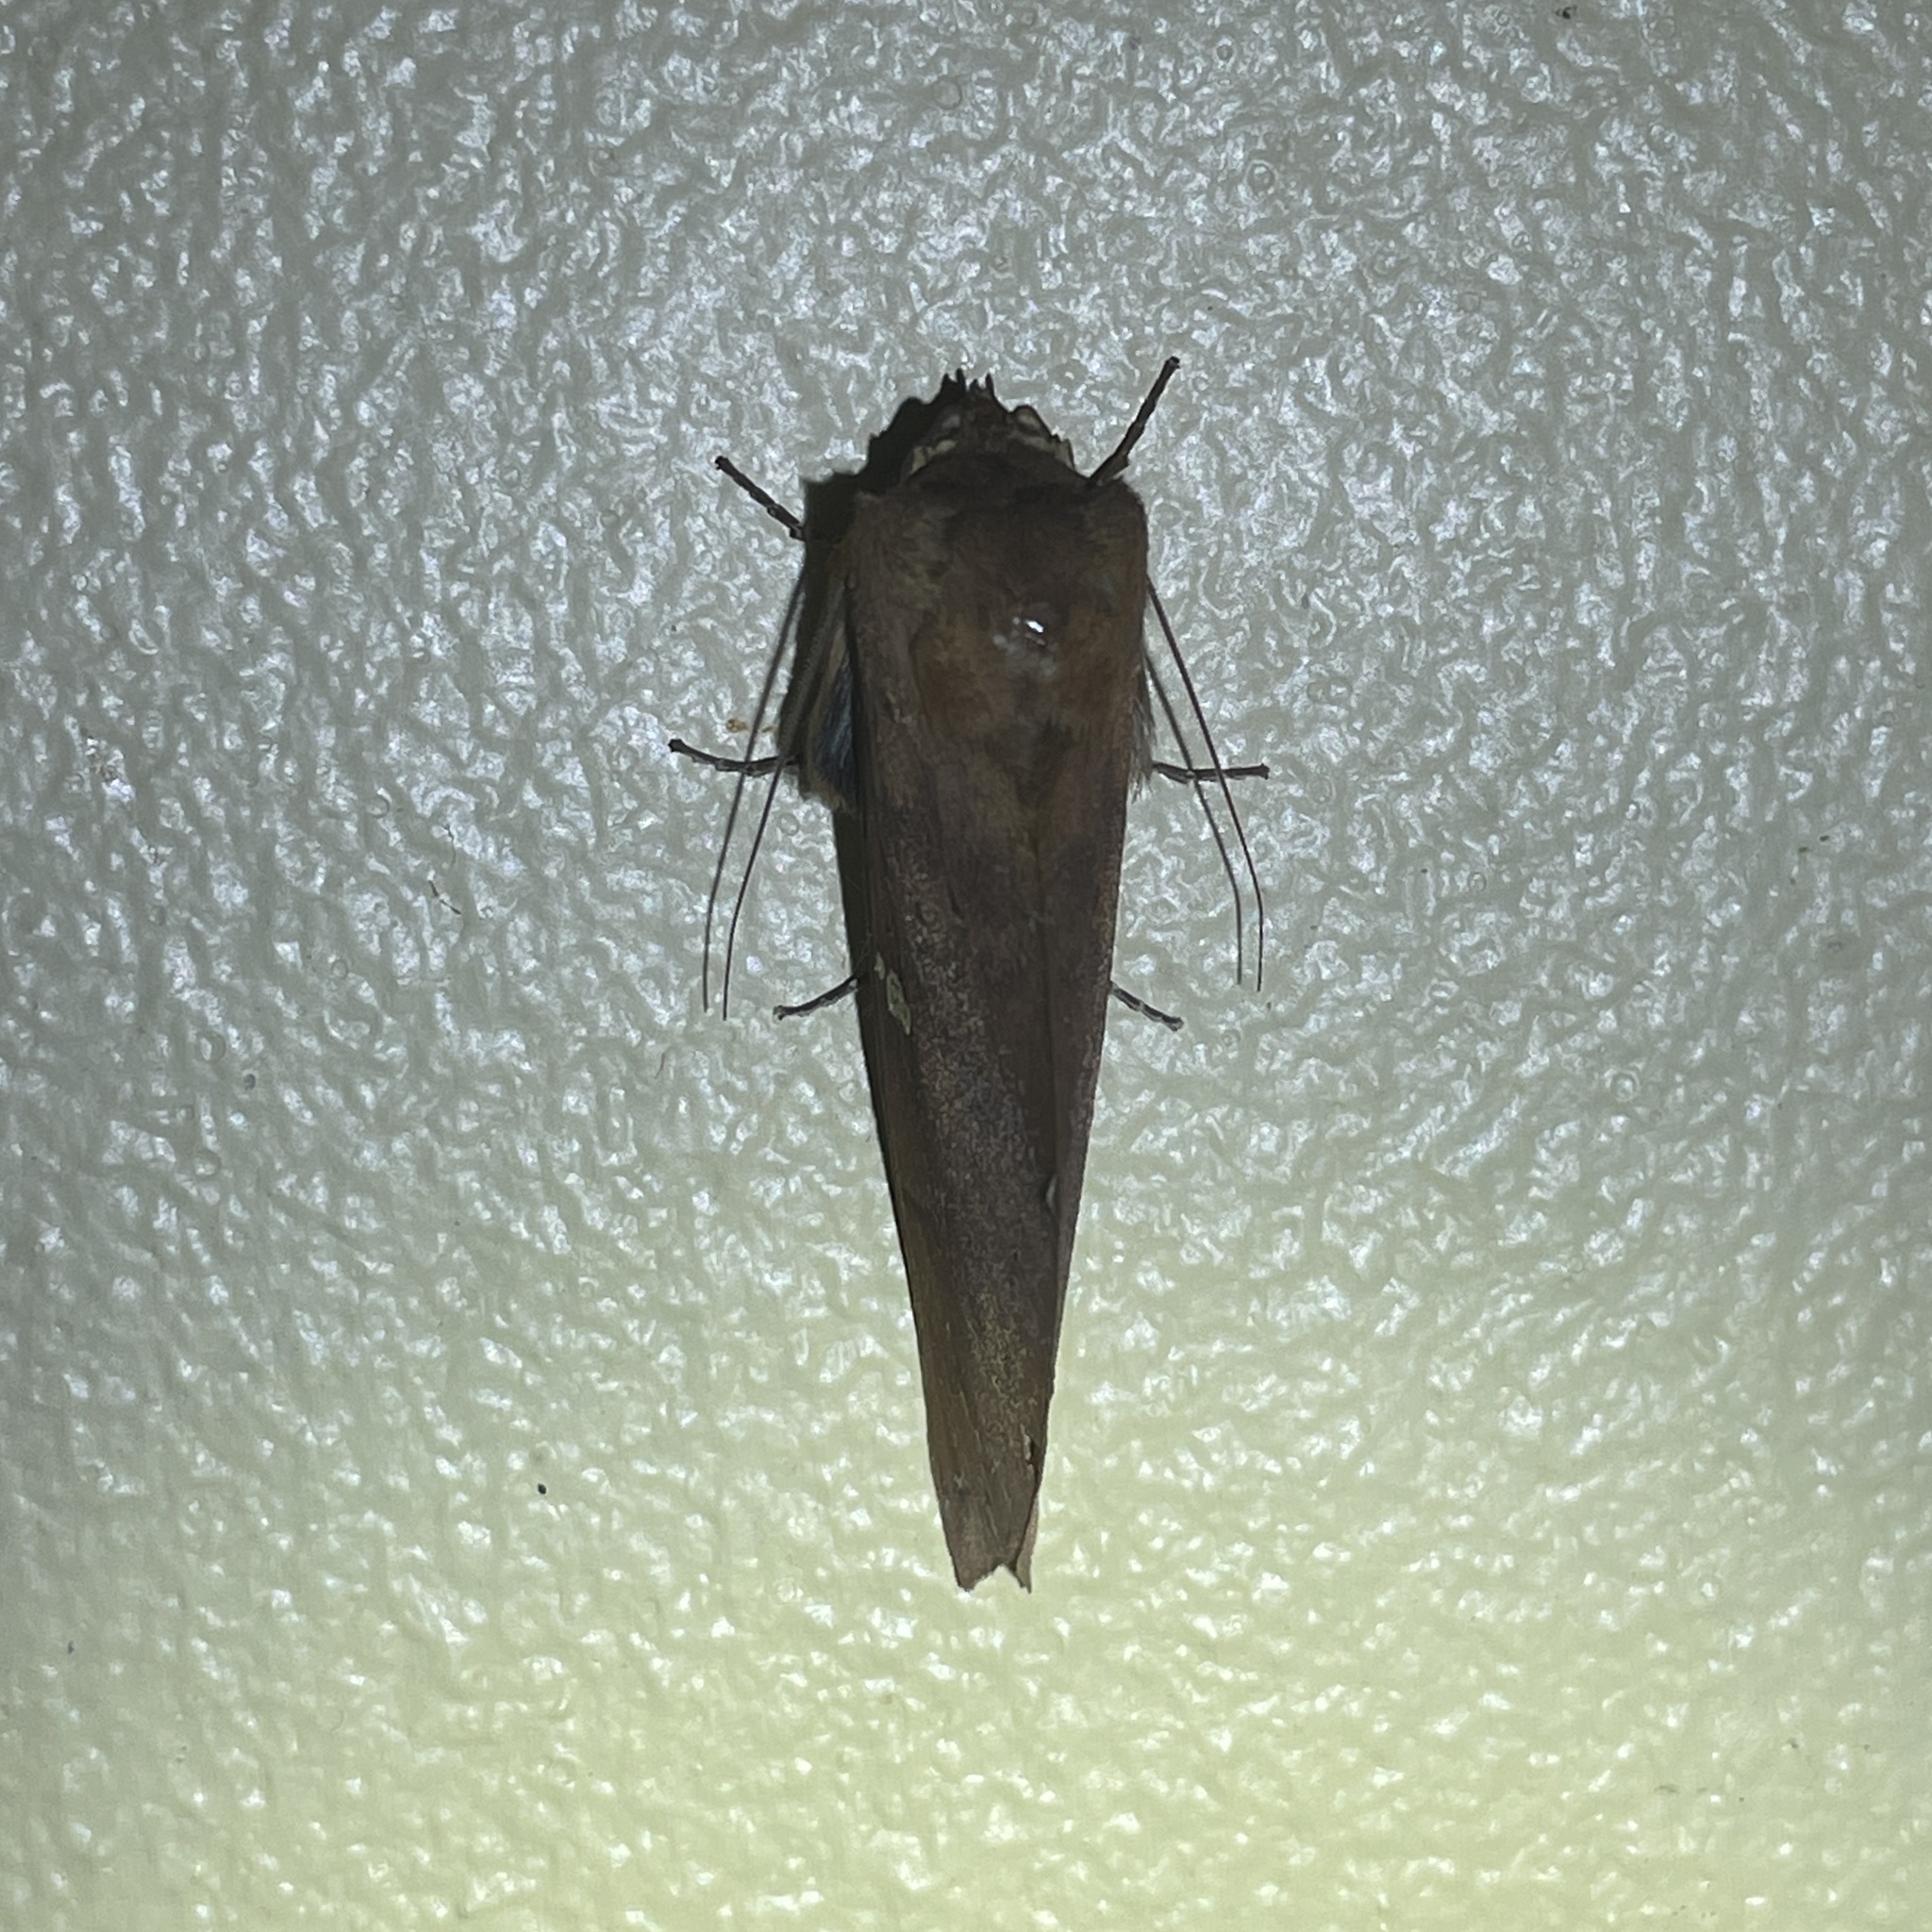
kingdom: Animalia
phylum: Arthropoda
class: Insecta
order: Lepidoptera
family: Notodontidae
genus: Hapigia
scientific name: Hapigia raatzi
